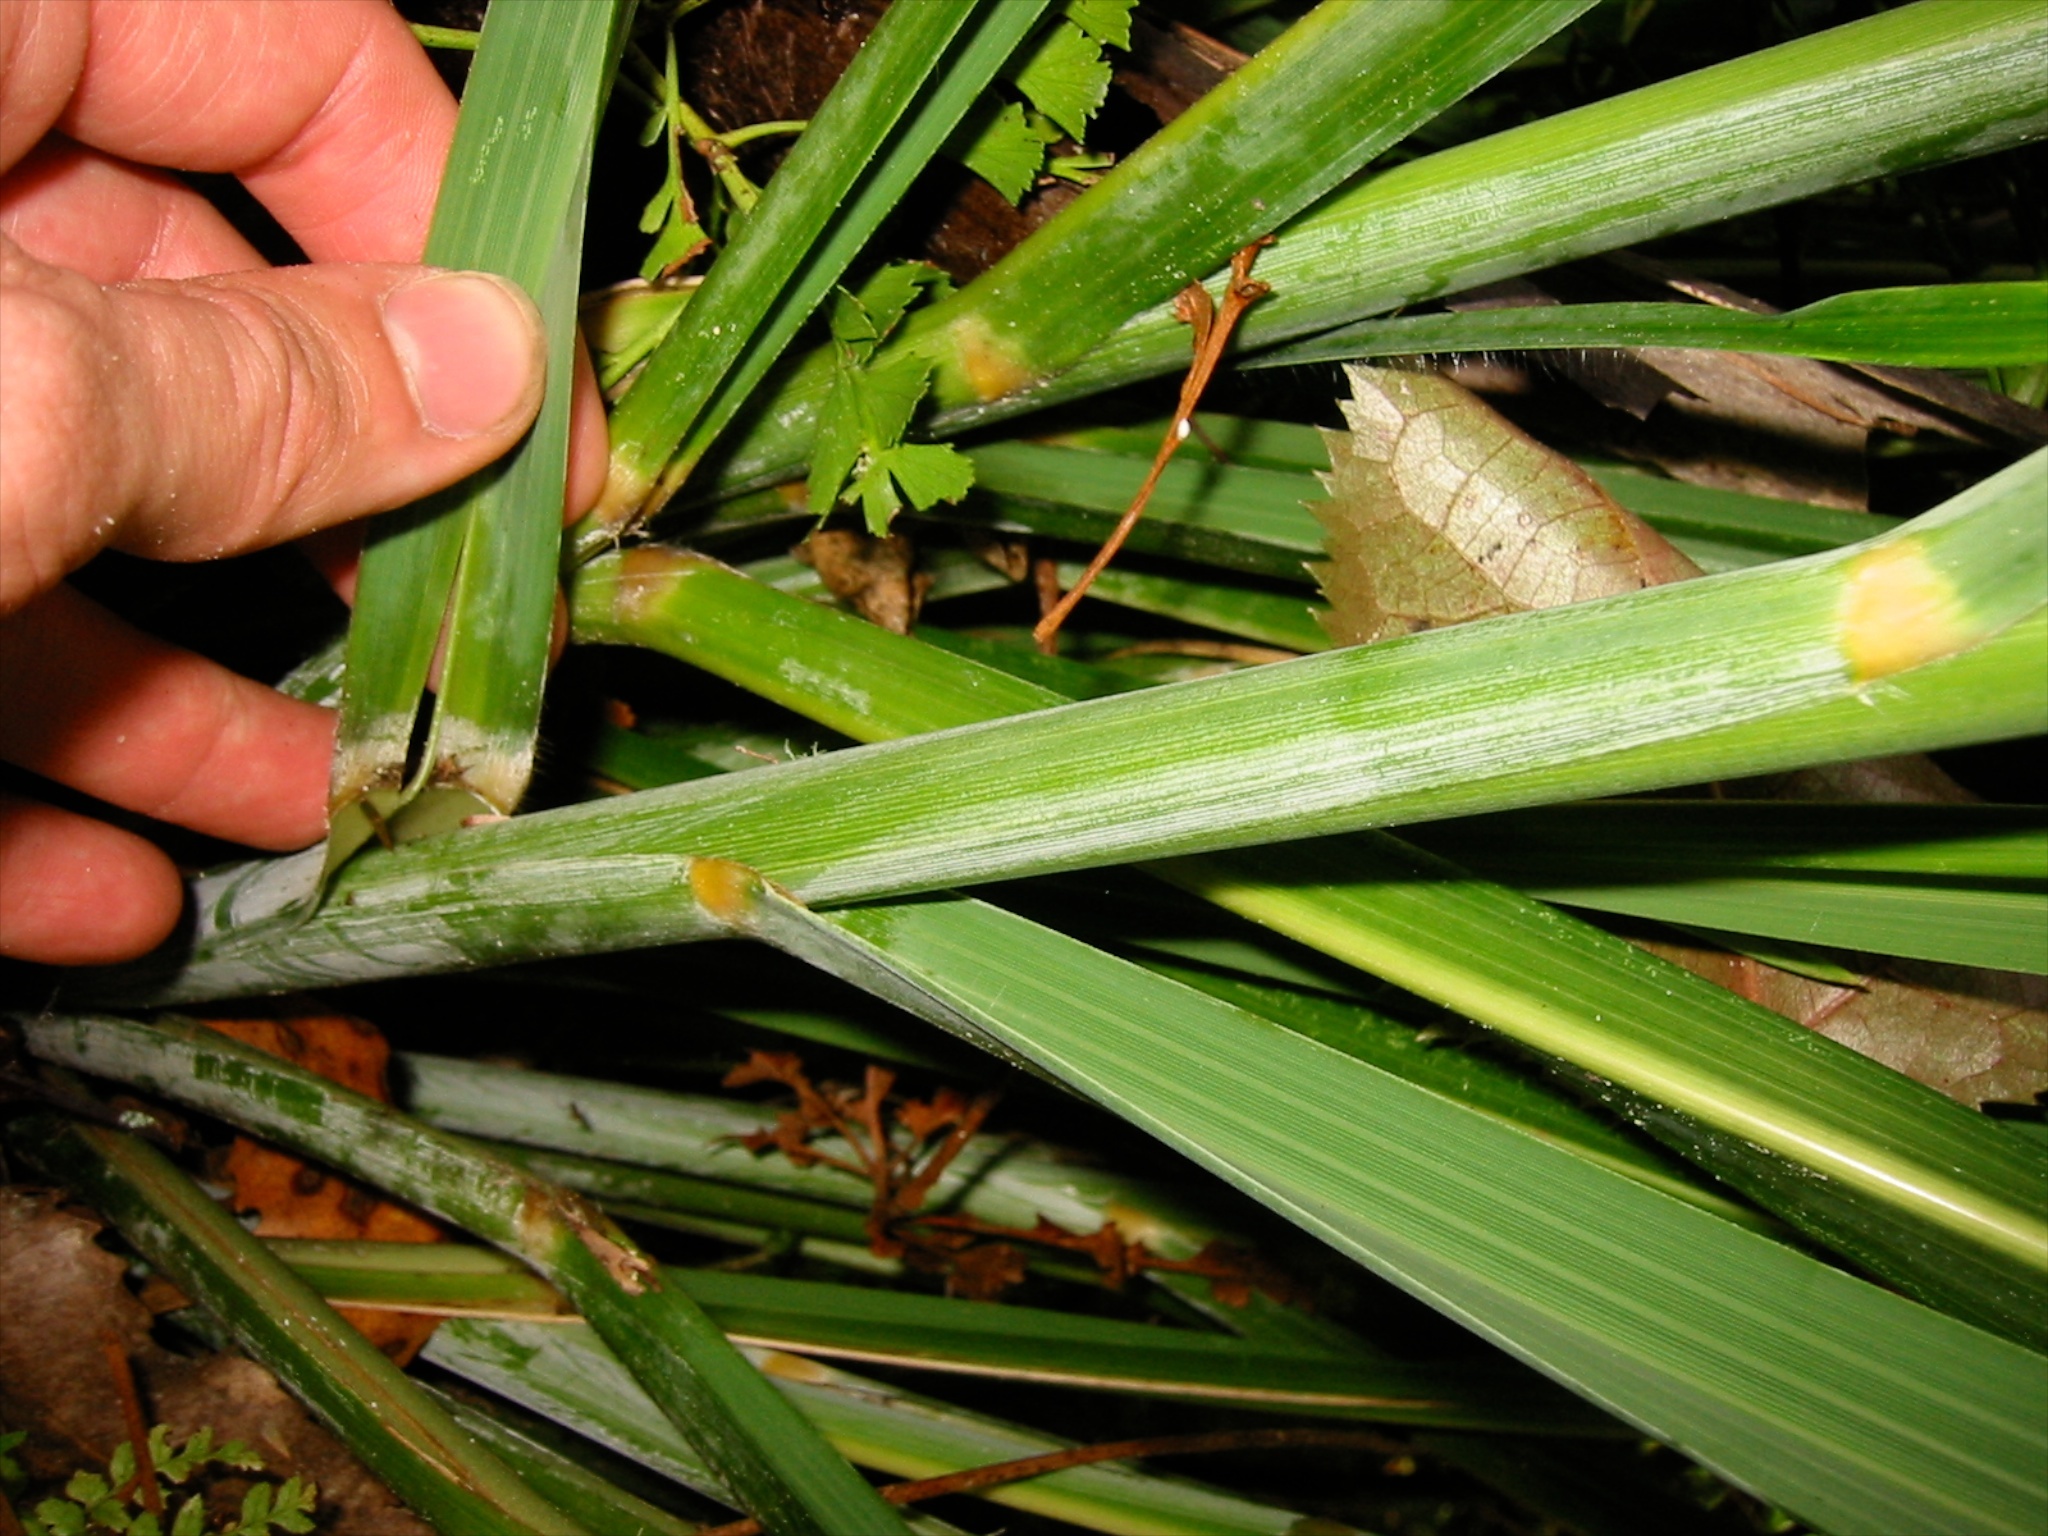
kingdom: Plantae
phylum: Tracheophyta
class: Liliopsida
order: Poales
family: Poaceae
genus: Austroderia
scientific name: Austroderia fulvida
